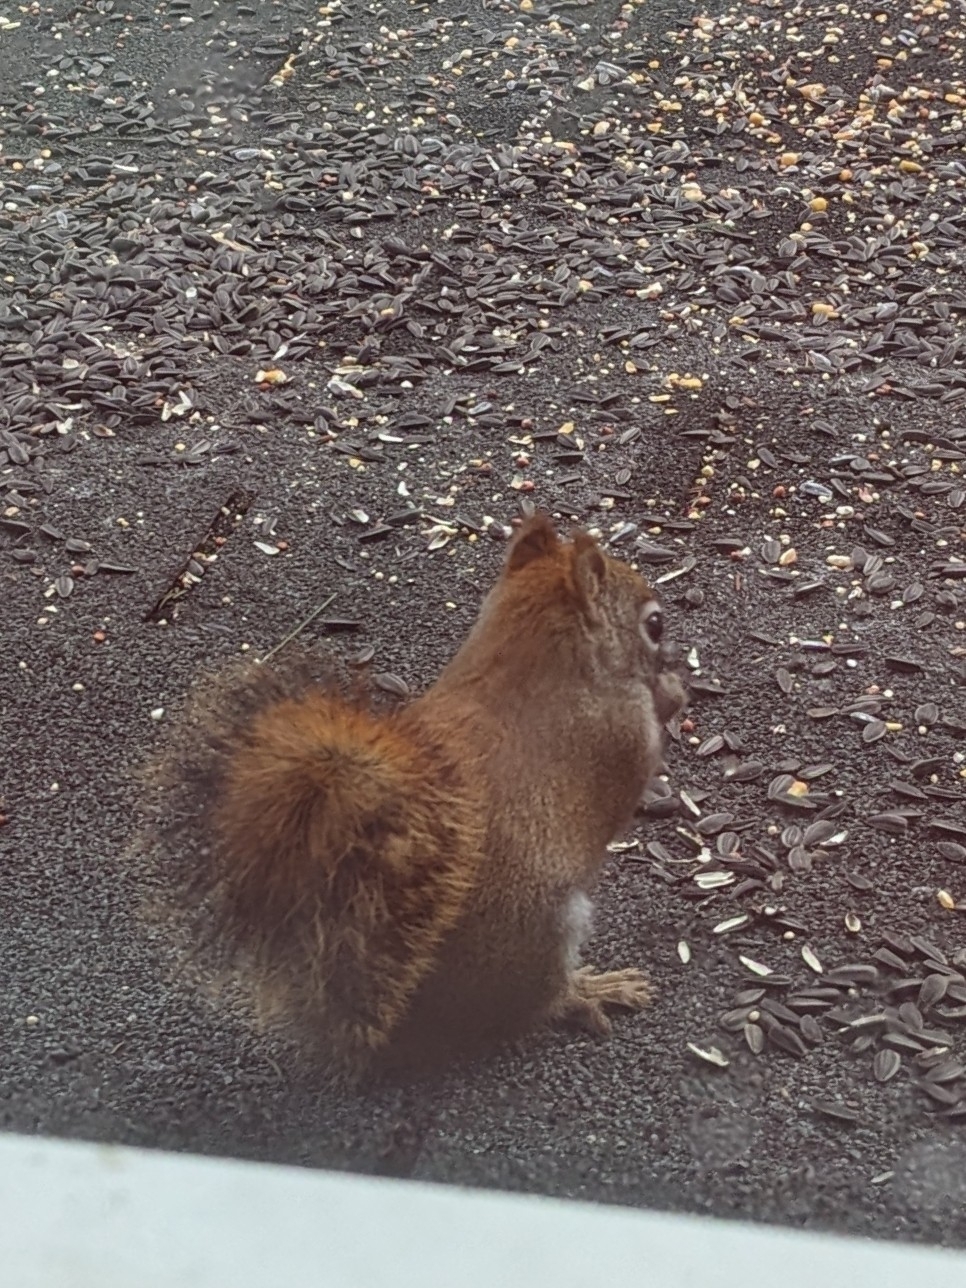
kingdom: Animalia
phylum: Chordata
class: Mammalia
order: Rodentia
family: Sciuridae
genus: Tamiasciurus
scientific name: Tamiasciurus hudsonicus
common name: Red squirrel
